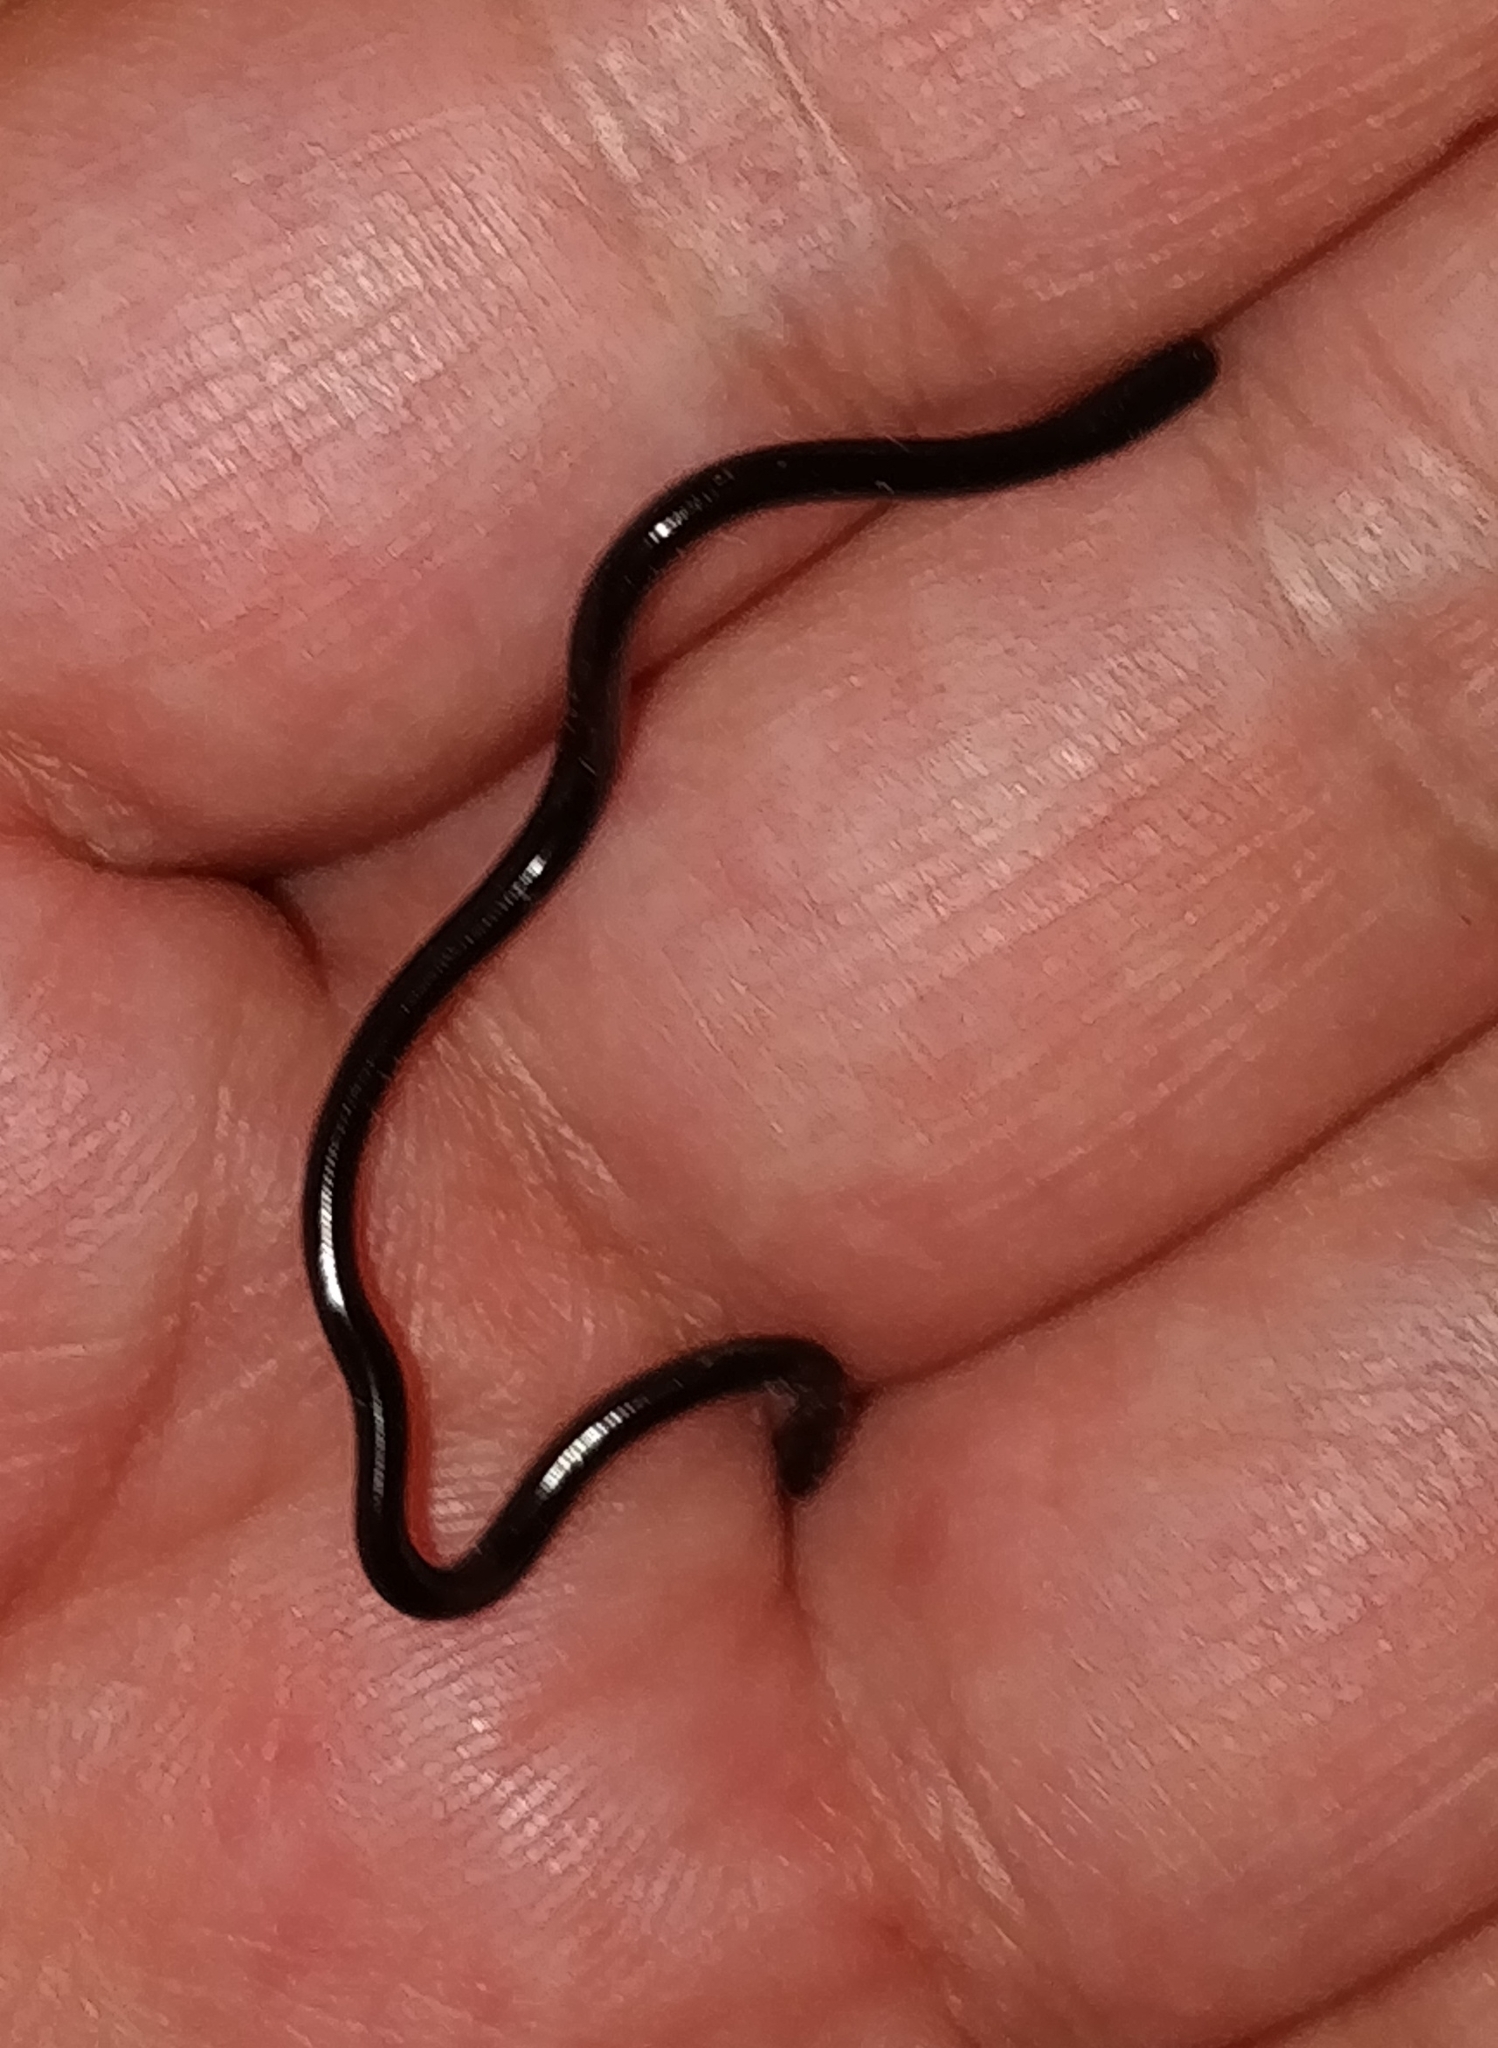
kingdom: Animalia
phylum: Chordata
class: Squamata
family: Typhlopidae
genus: Indotyphlops
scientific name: Indotyphlops braminus
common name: Brahminy blindsnake
